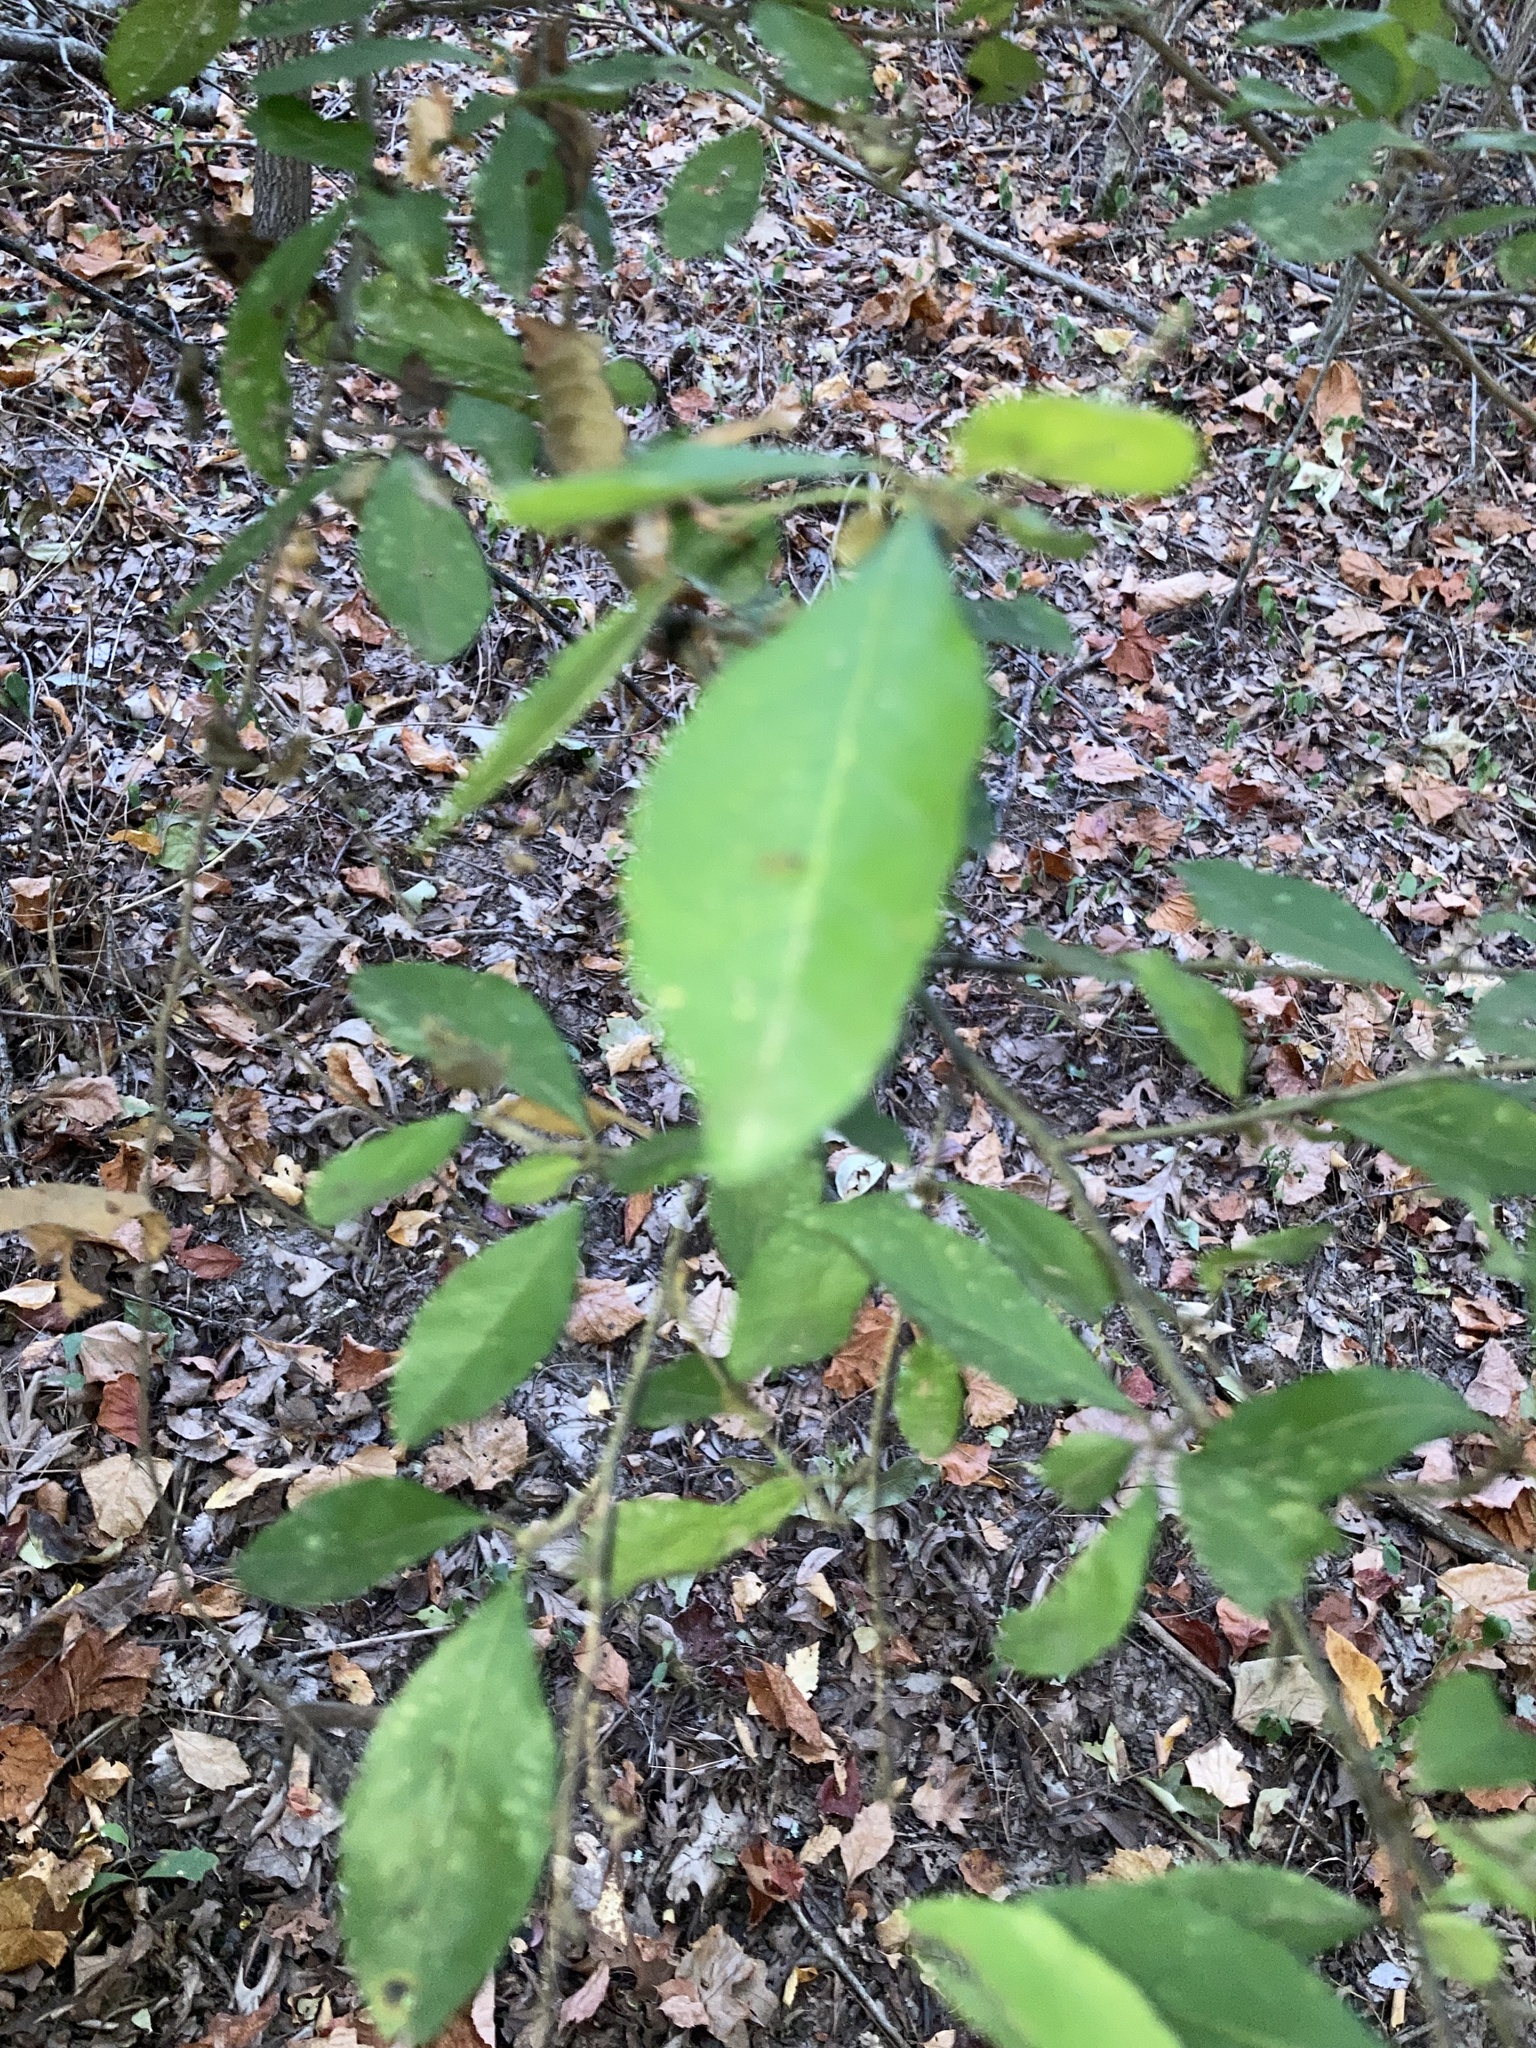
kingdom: Plantae
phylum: Tracheophyta
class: Magnoliopsida
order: Aquifoliales
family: Aquifoliaceae
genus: Ilex
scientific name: Ilex decidua
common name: Possum-haw
